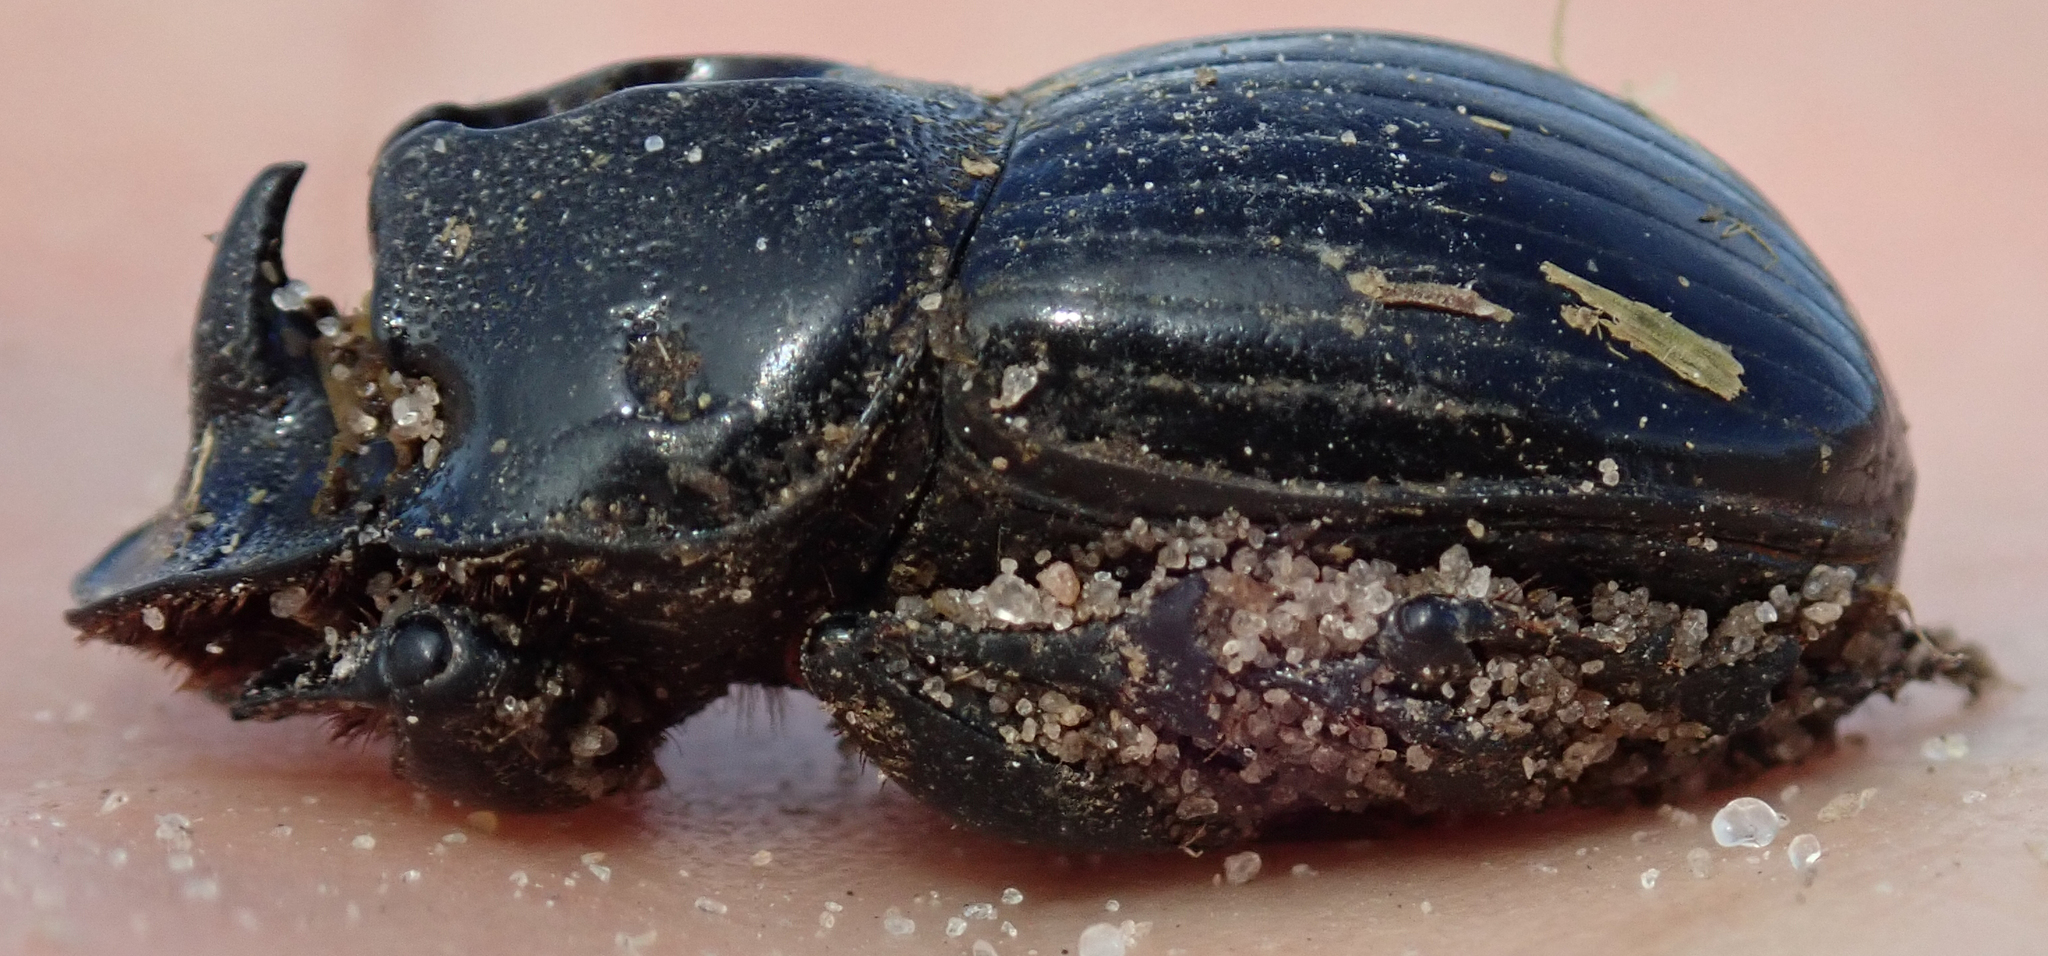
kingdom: Animalia
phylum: Arthropoda
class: Insecta
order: Coleoptera
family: Scarabaeidae
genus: Copris
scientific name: Copris bootes
